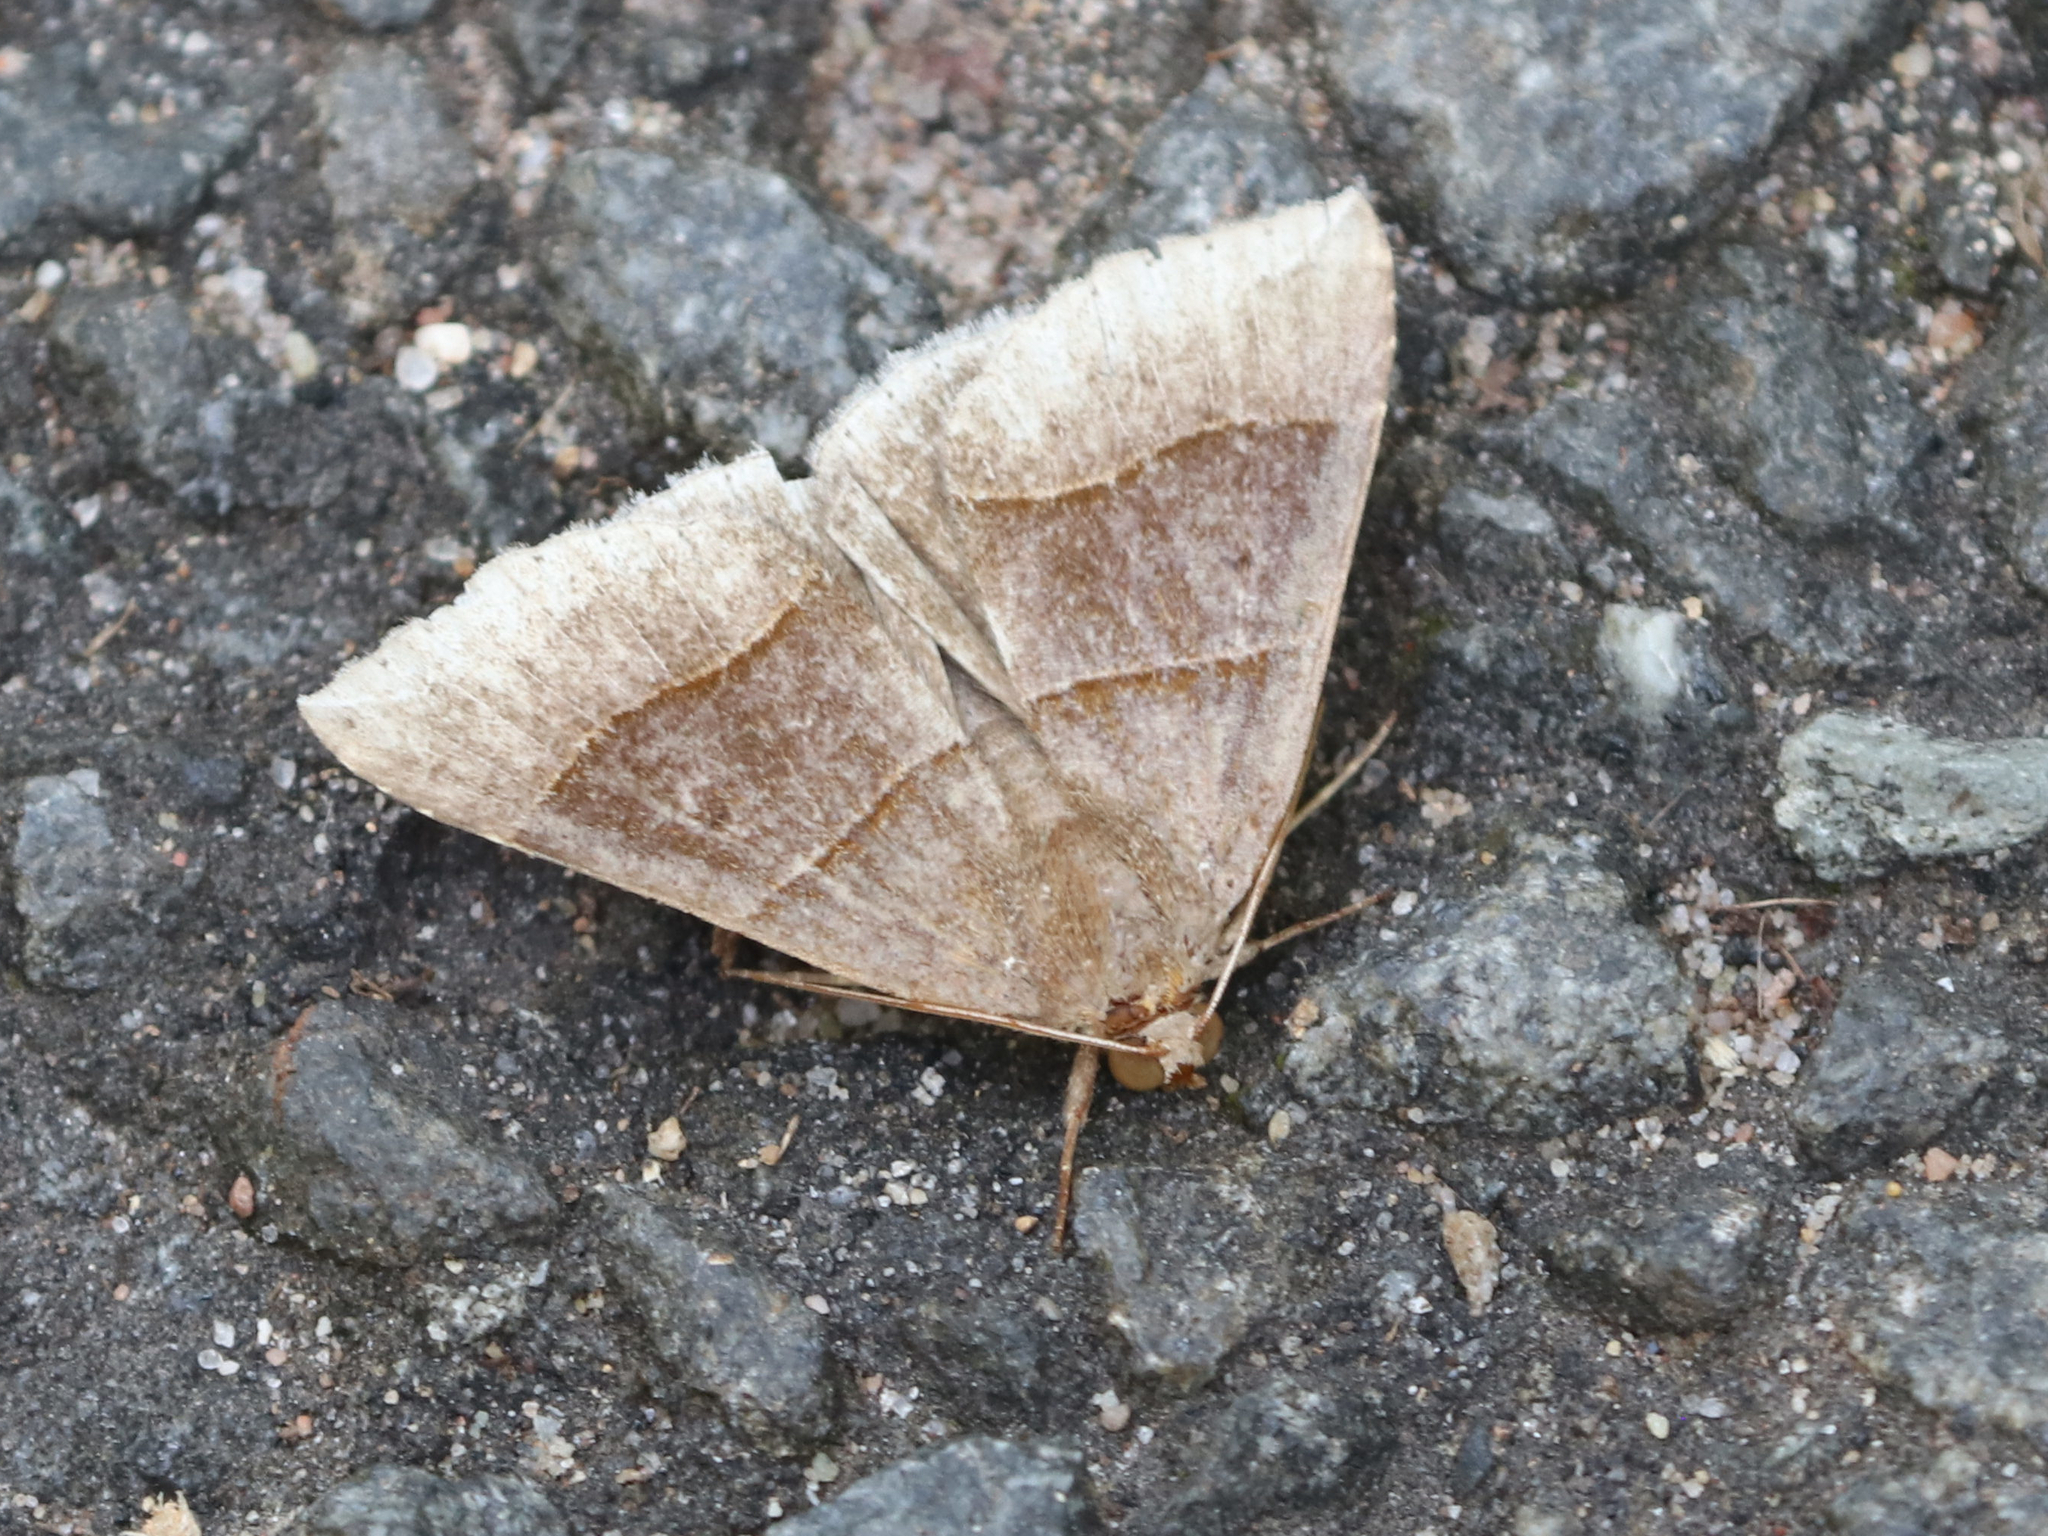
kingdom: Animalia
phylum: Arthropoda
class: Insecta
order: Lepidoptera
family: Erebidae
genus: Parallelia
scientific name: Parallelia bistriaris
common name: Maple looper moth
